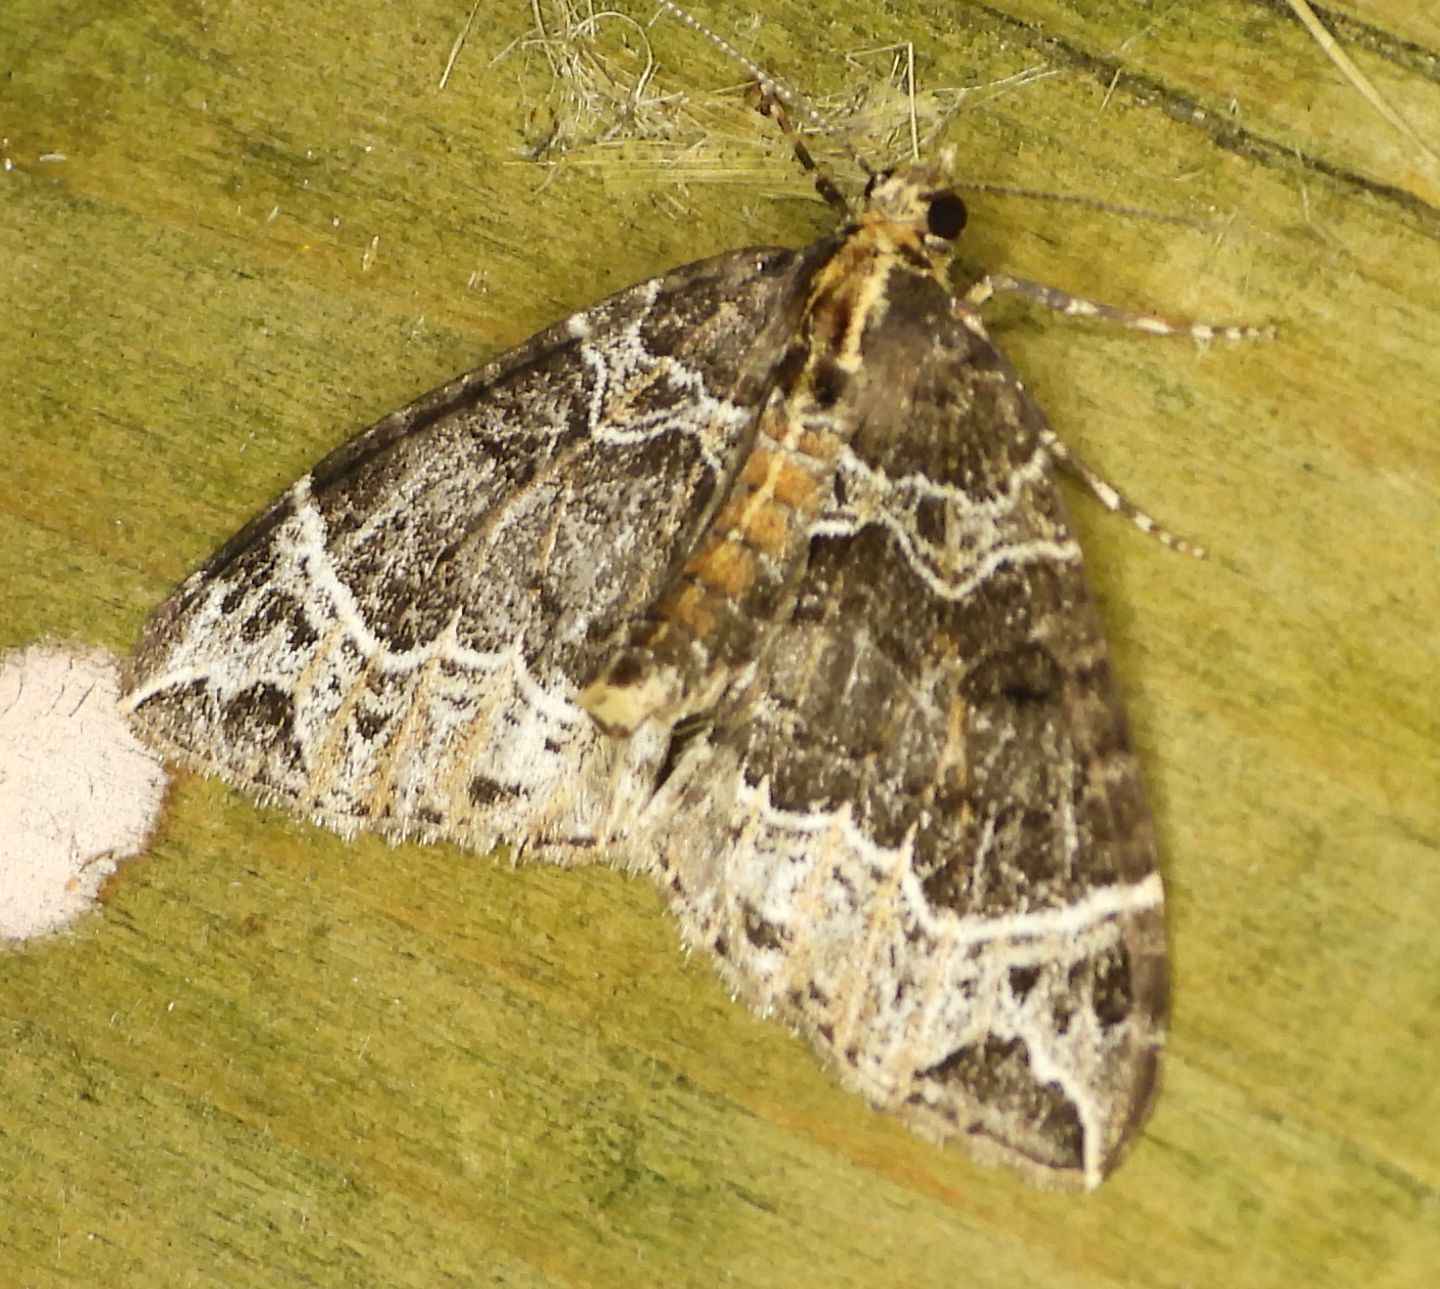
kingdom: Animalia
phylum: Arthropoda
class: Insecta
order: Lepidoptera
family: Geometridae
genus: Ecliptopera
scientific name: Ecliptopera silaceata
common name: Small phoenix
